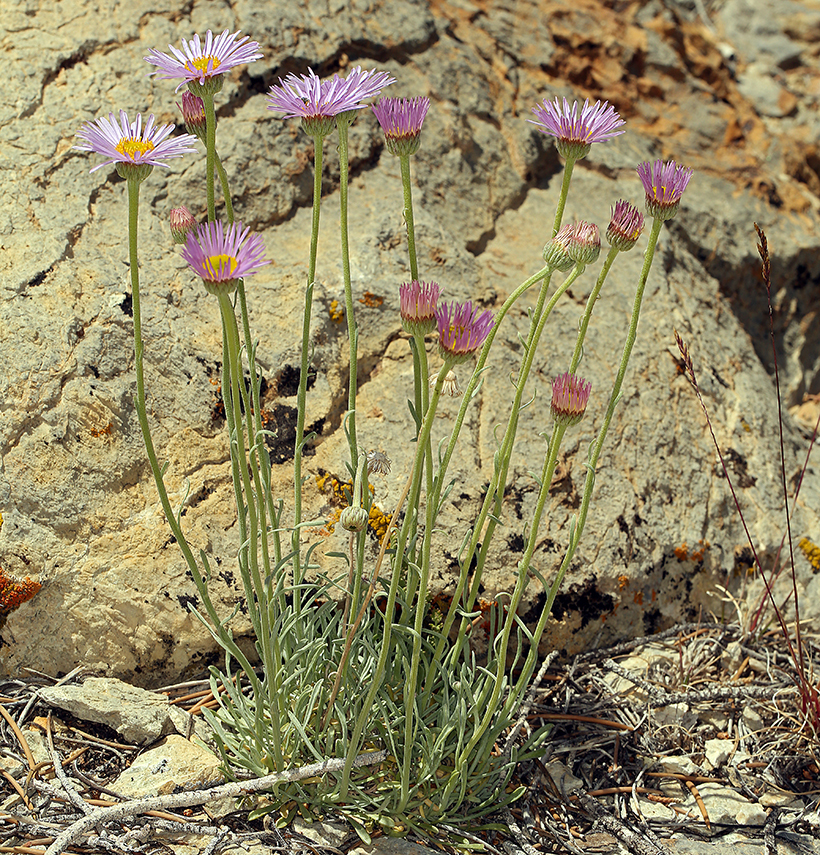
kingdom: Plantae
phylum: Tracheophyta
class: Magnoliopsida
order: Asterales
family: Asteraceae
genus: Erigeron
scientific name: Erigeron argentatus
